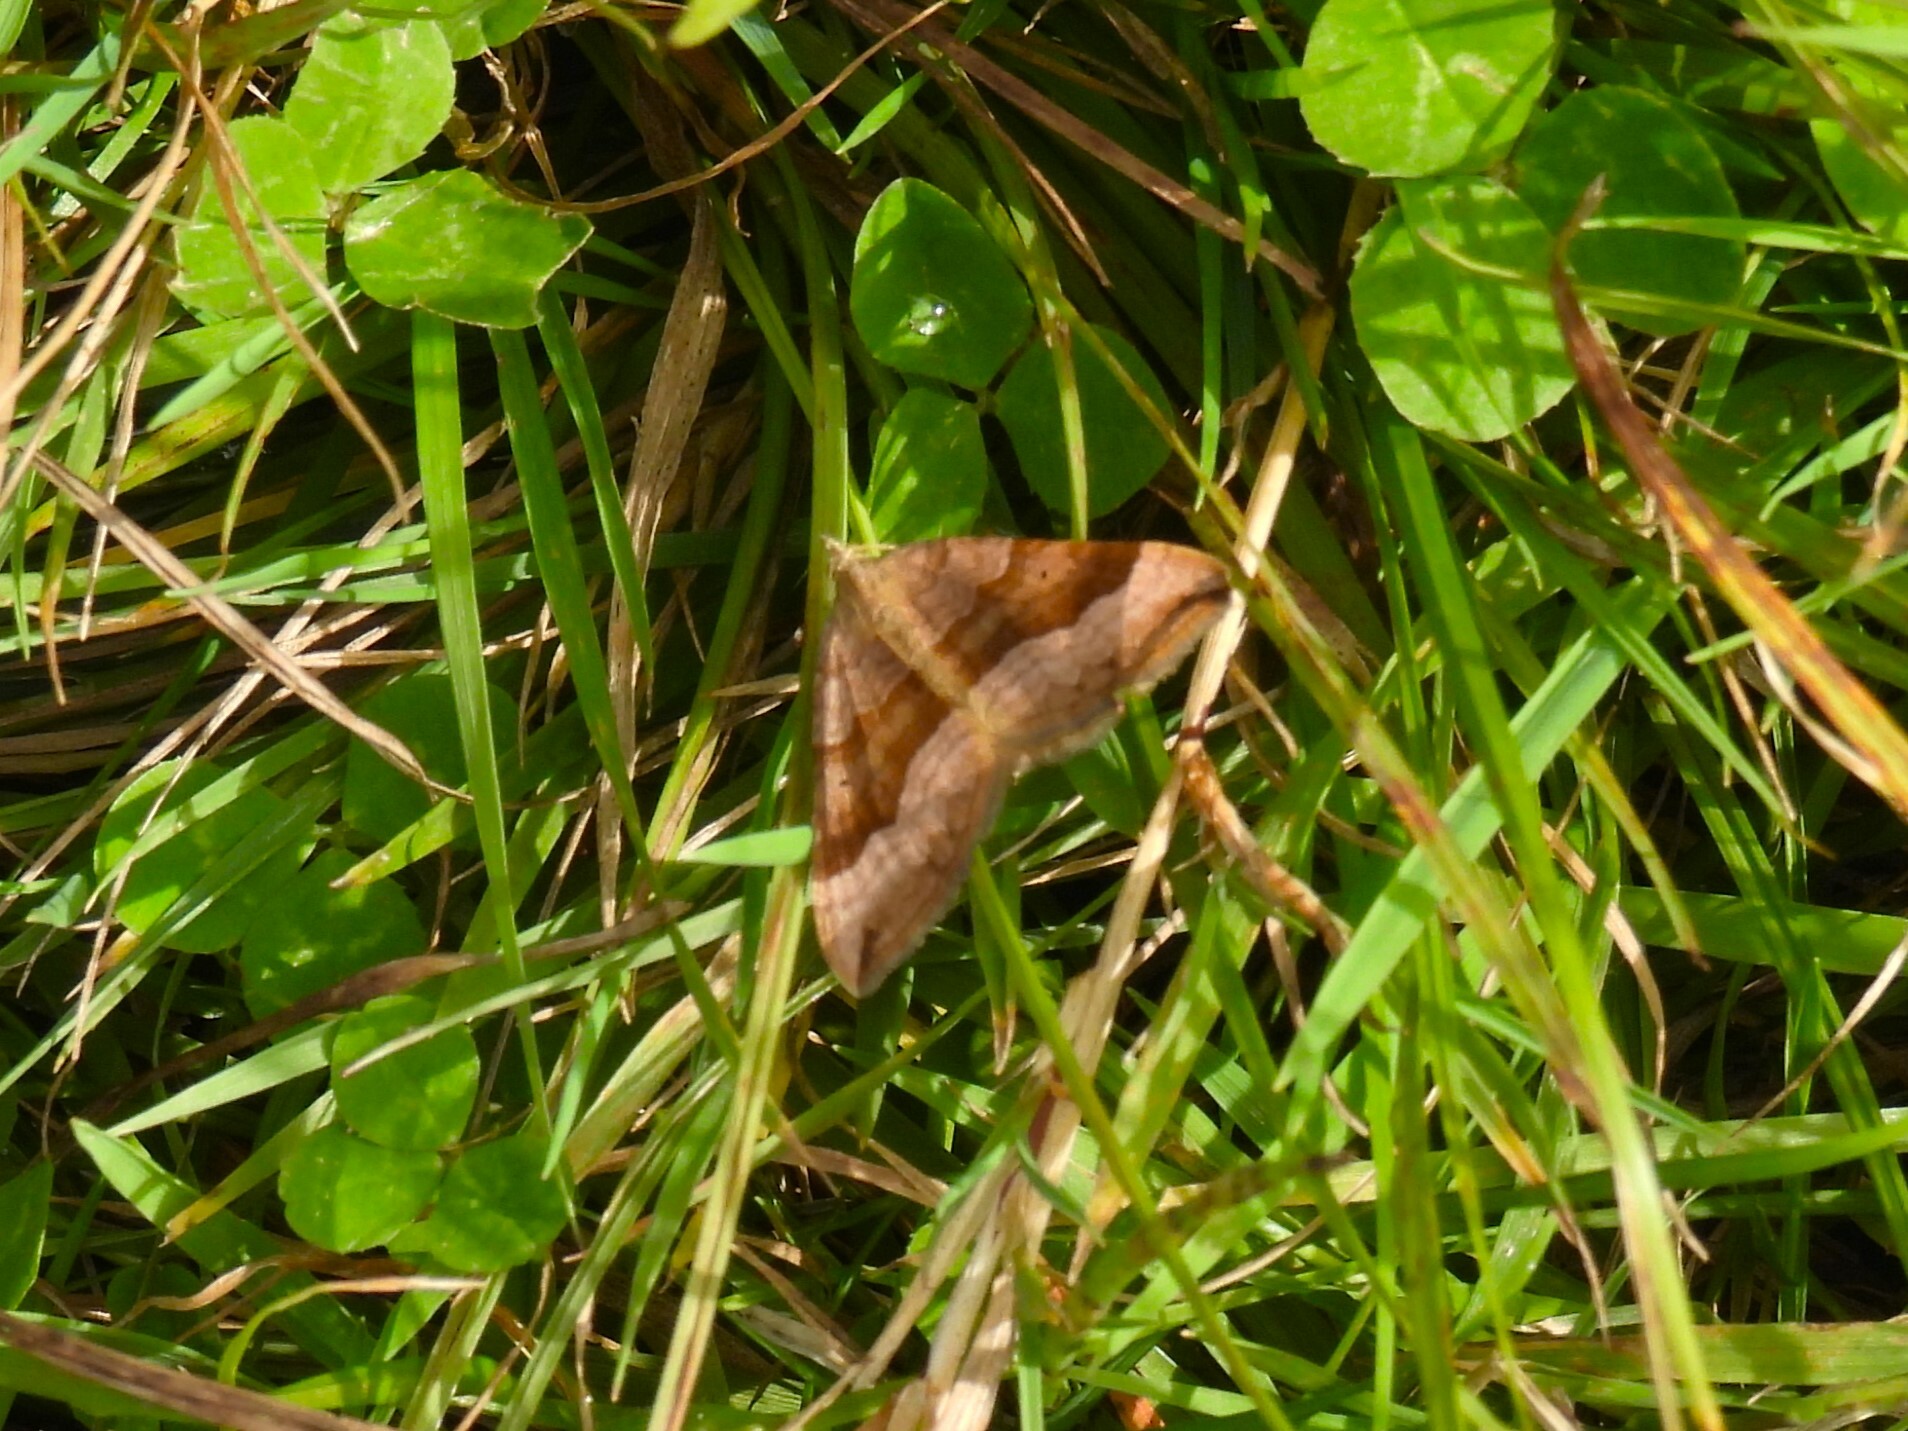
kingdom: Animalia
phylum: Arthropoda
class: Insecta
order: Lepidoptera
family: Geometridae
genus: Scotopteryx
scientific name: Scotopteryx chenopodiata
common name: Shaded broad-bar
